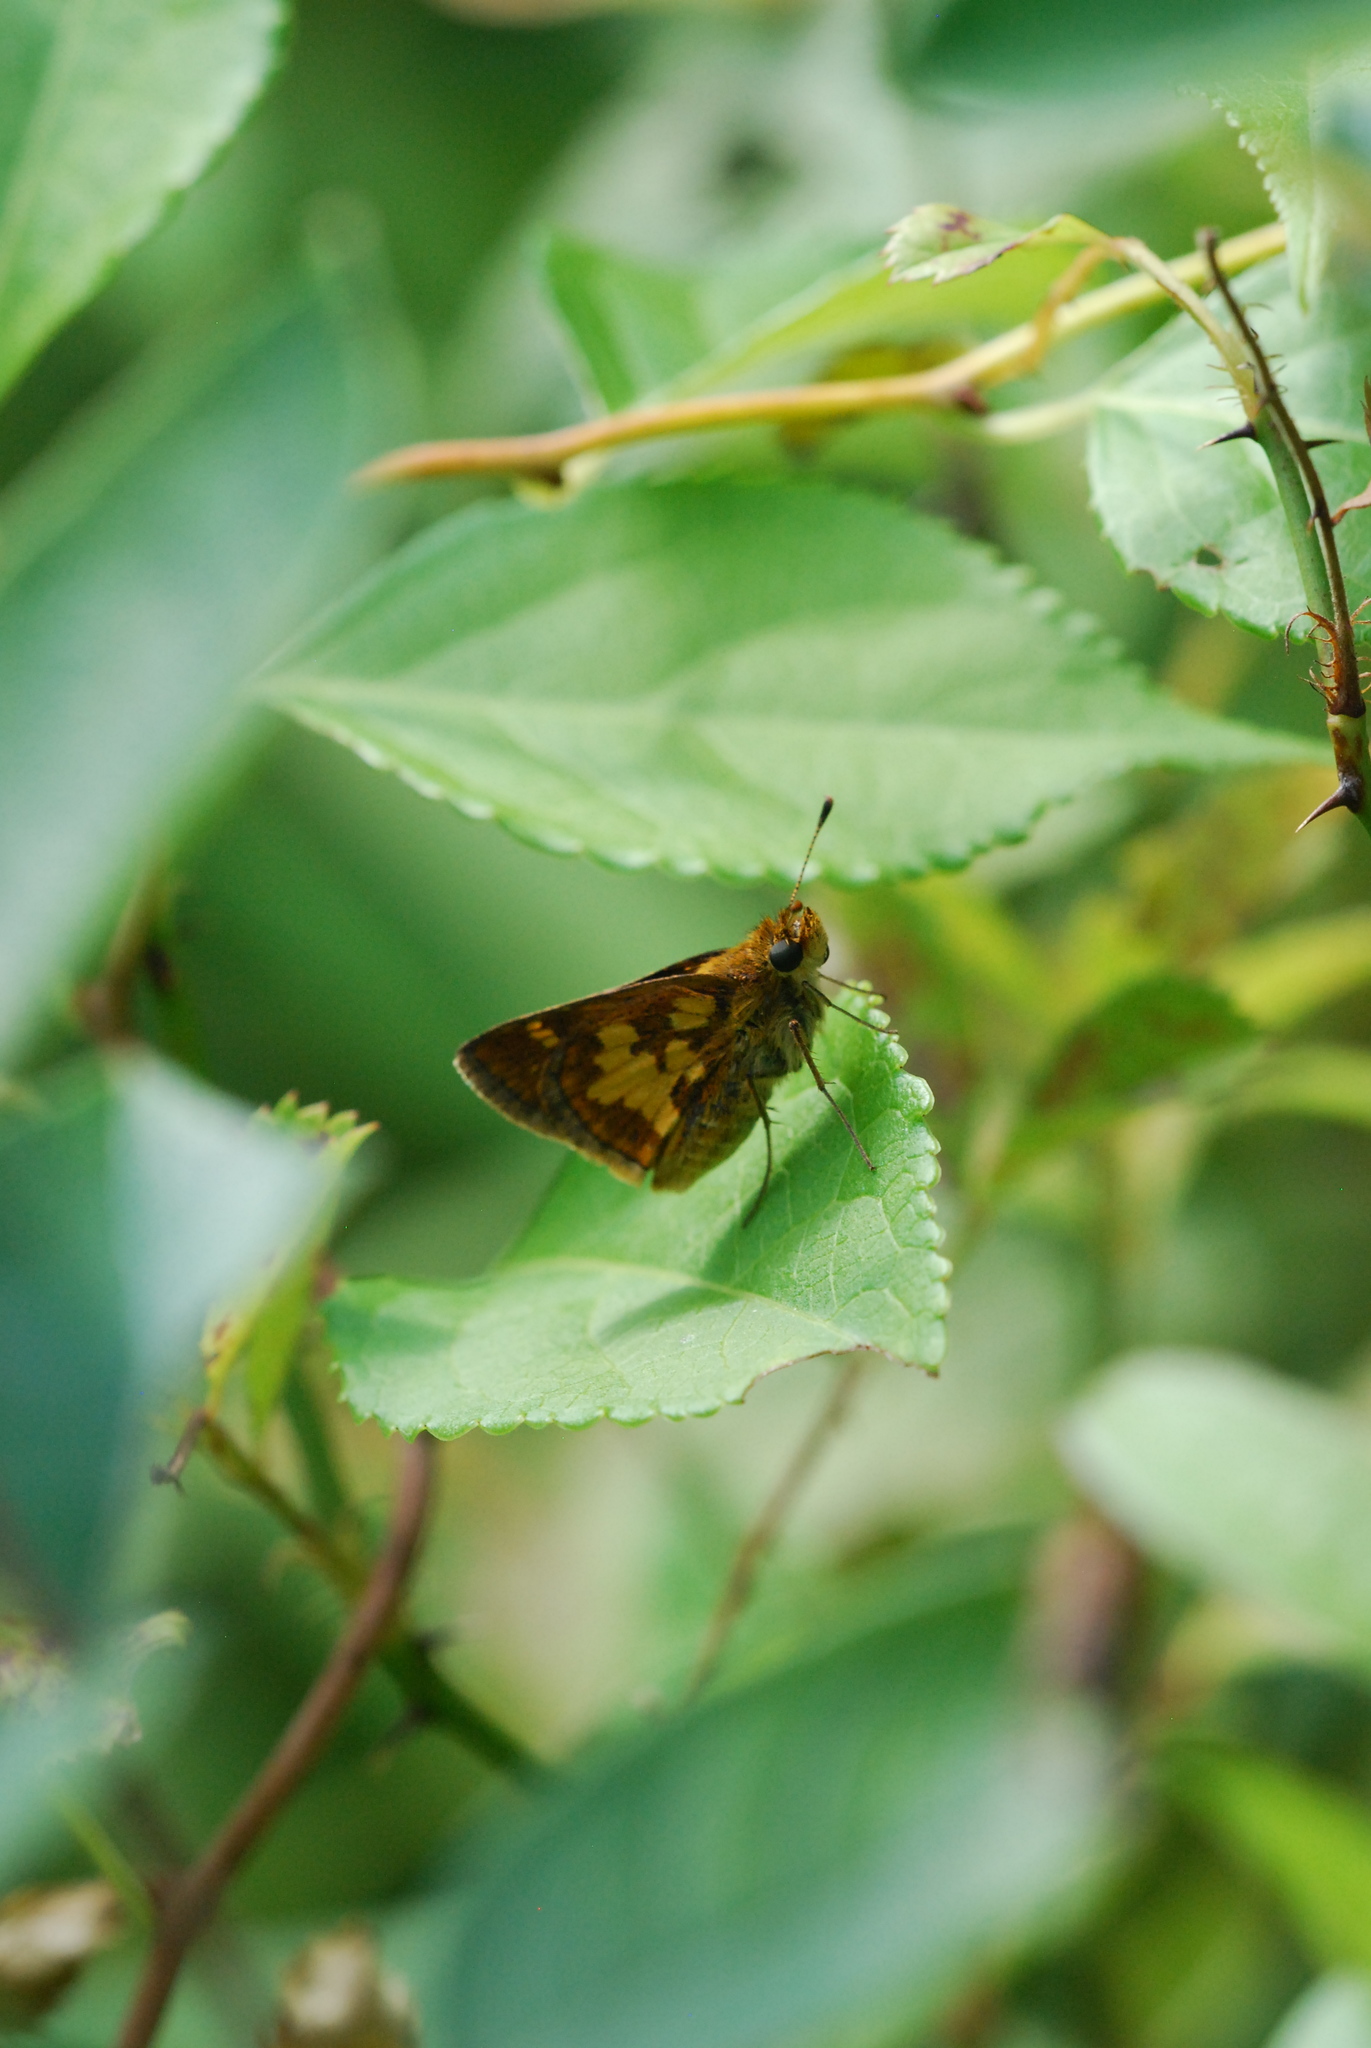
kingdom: Animalia
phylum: Arthropoda
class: Insecta
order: Lepidoptera
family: Hesperiidae
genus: Polites
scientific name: Polites coras
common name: Peck's skipper
